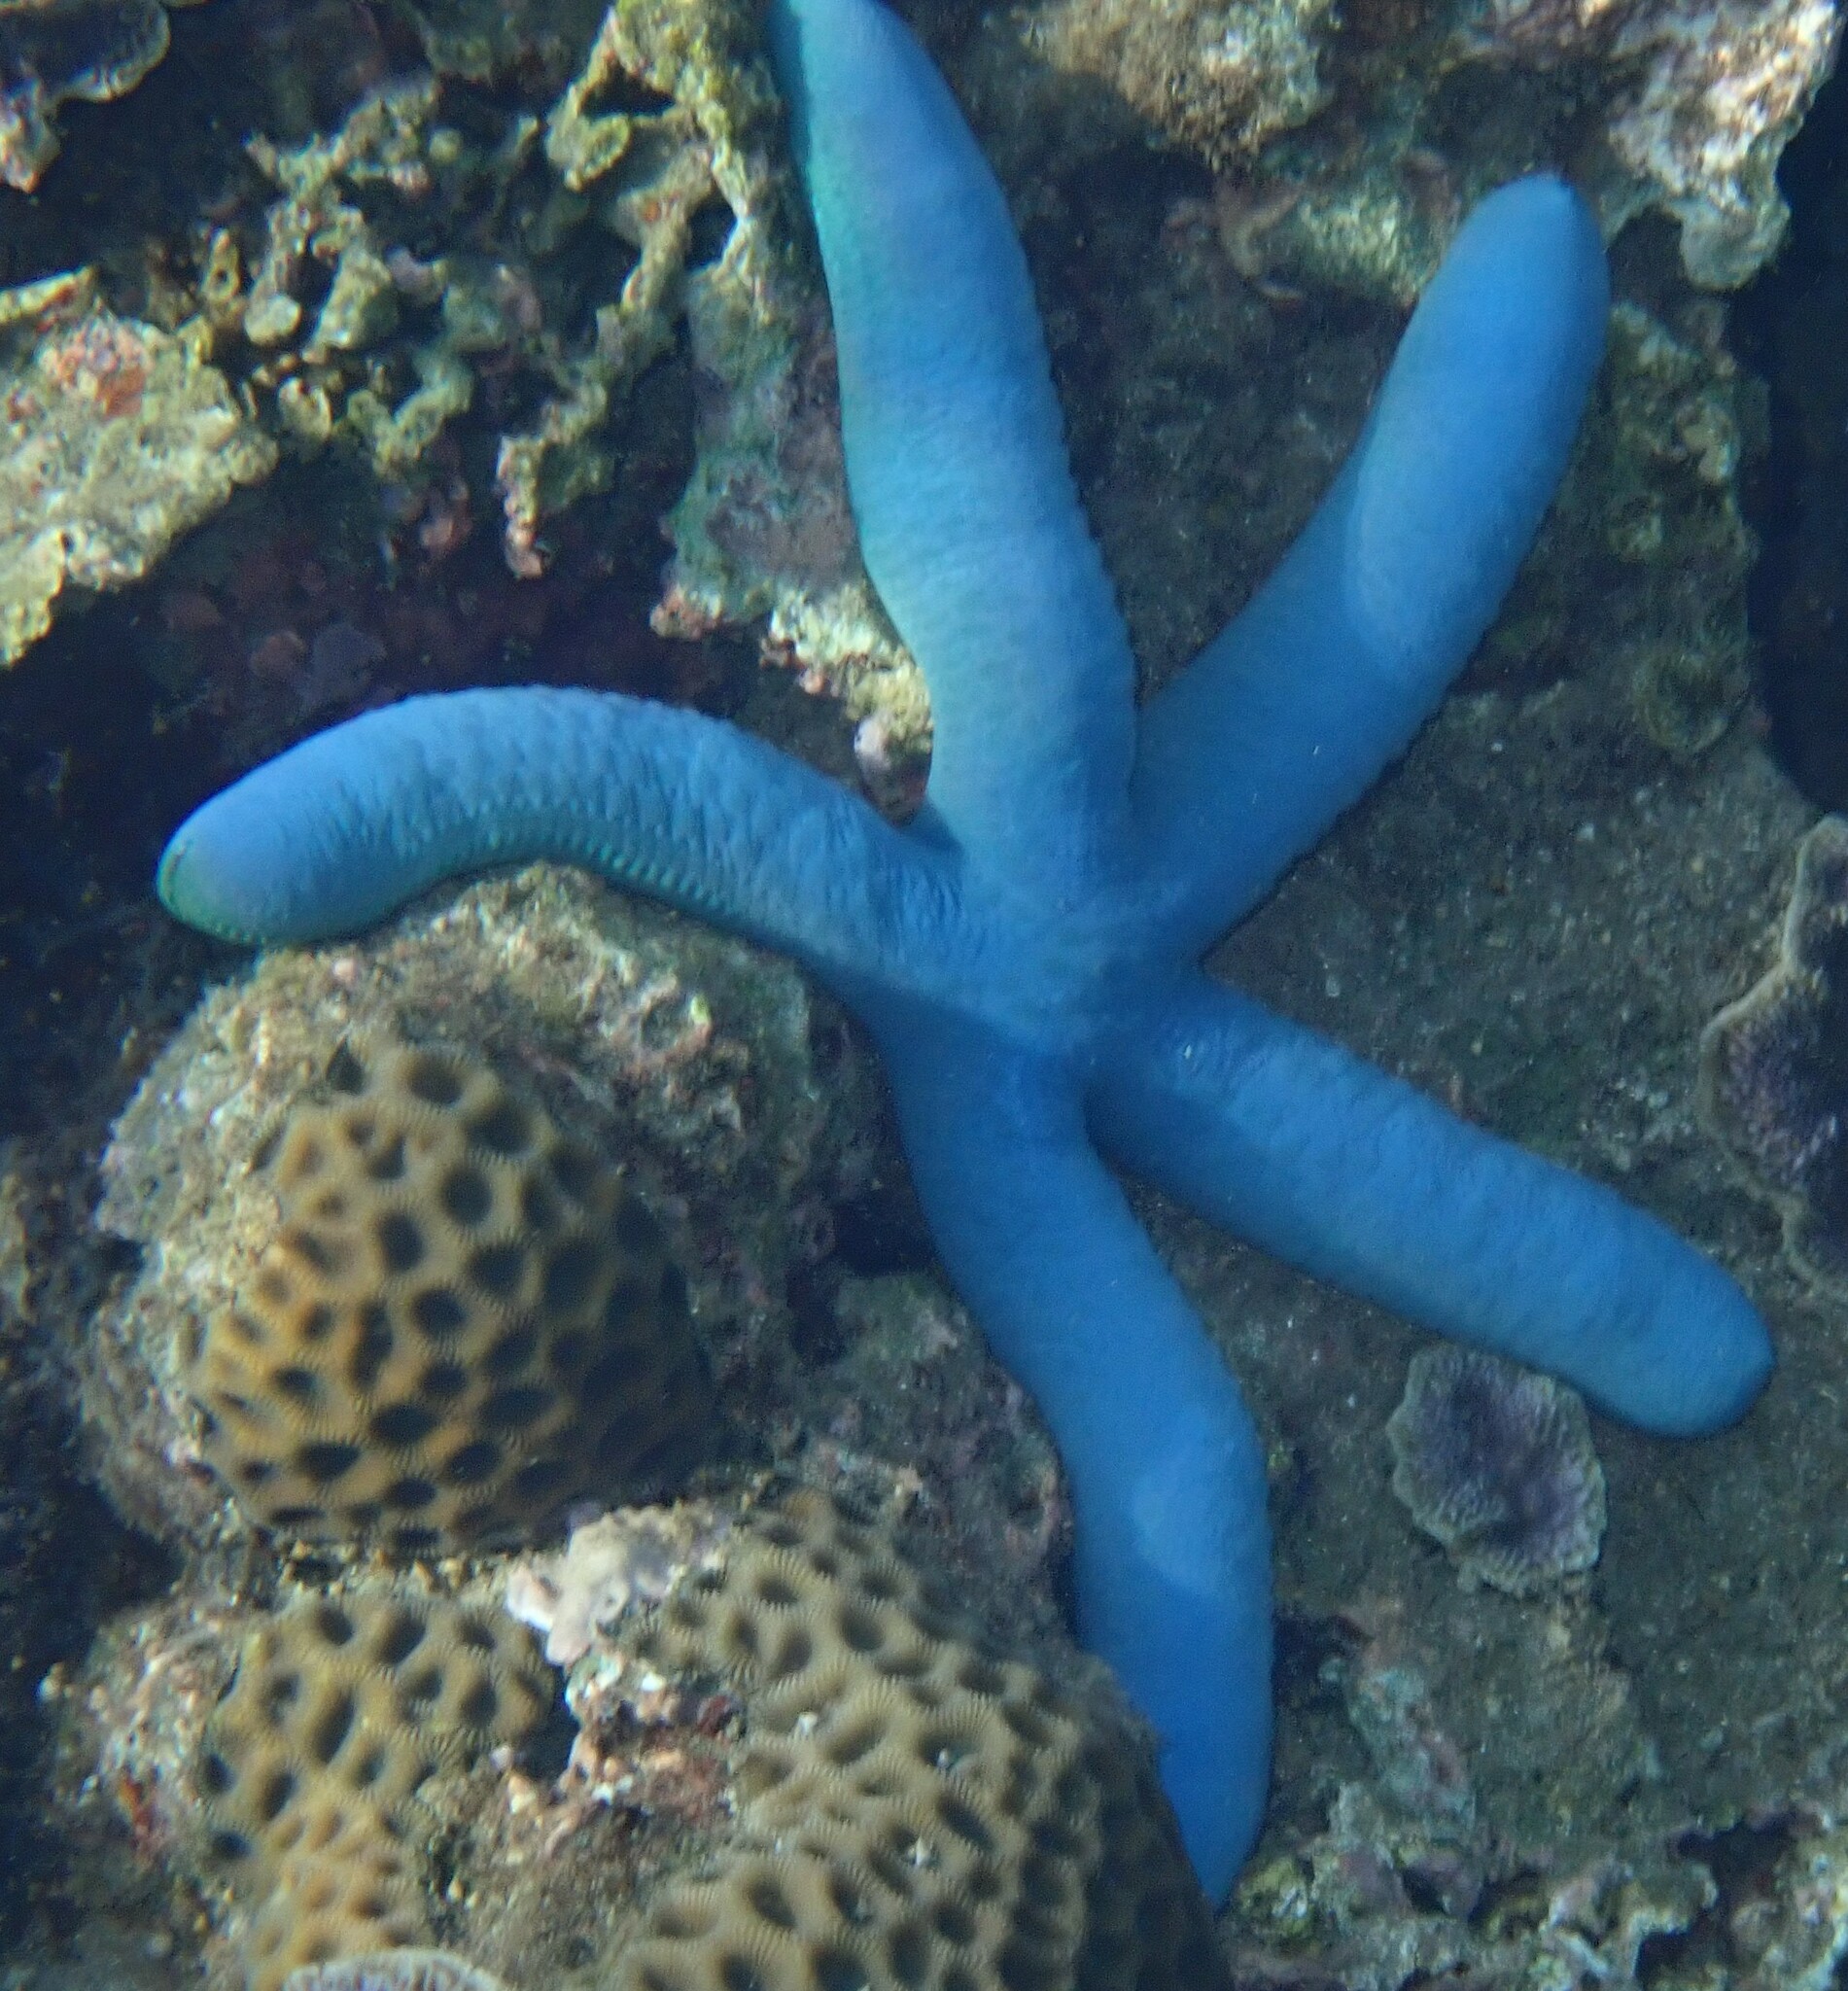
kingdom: Animalia
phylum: Echinodermata
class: Asteroidea
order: Valvatida
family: Ophidiasteridae
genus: Linckia
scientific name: Linckia laevigata
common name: Azure sea star
